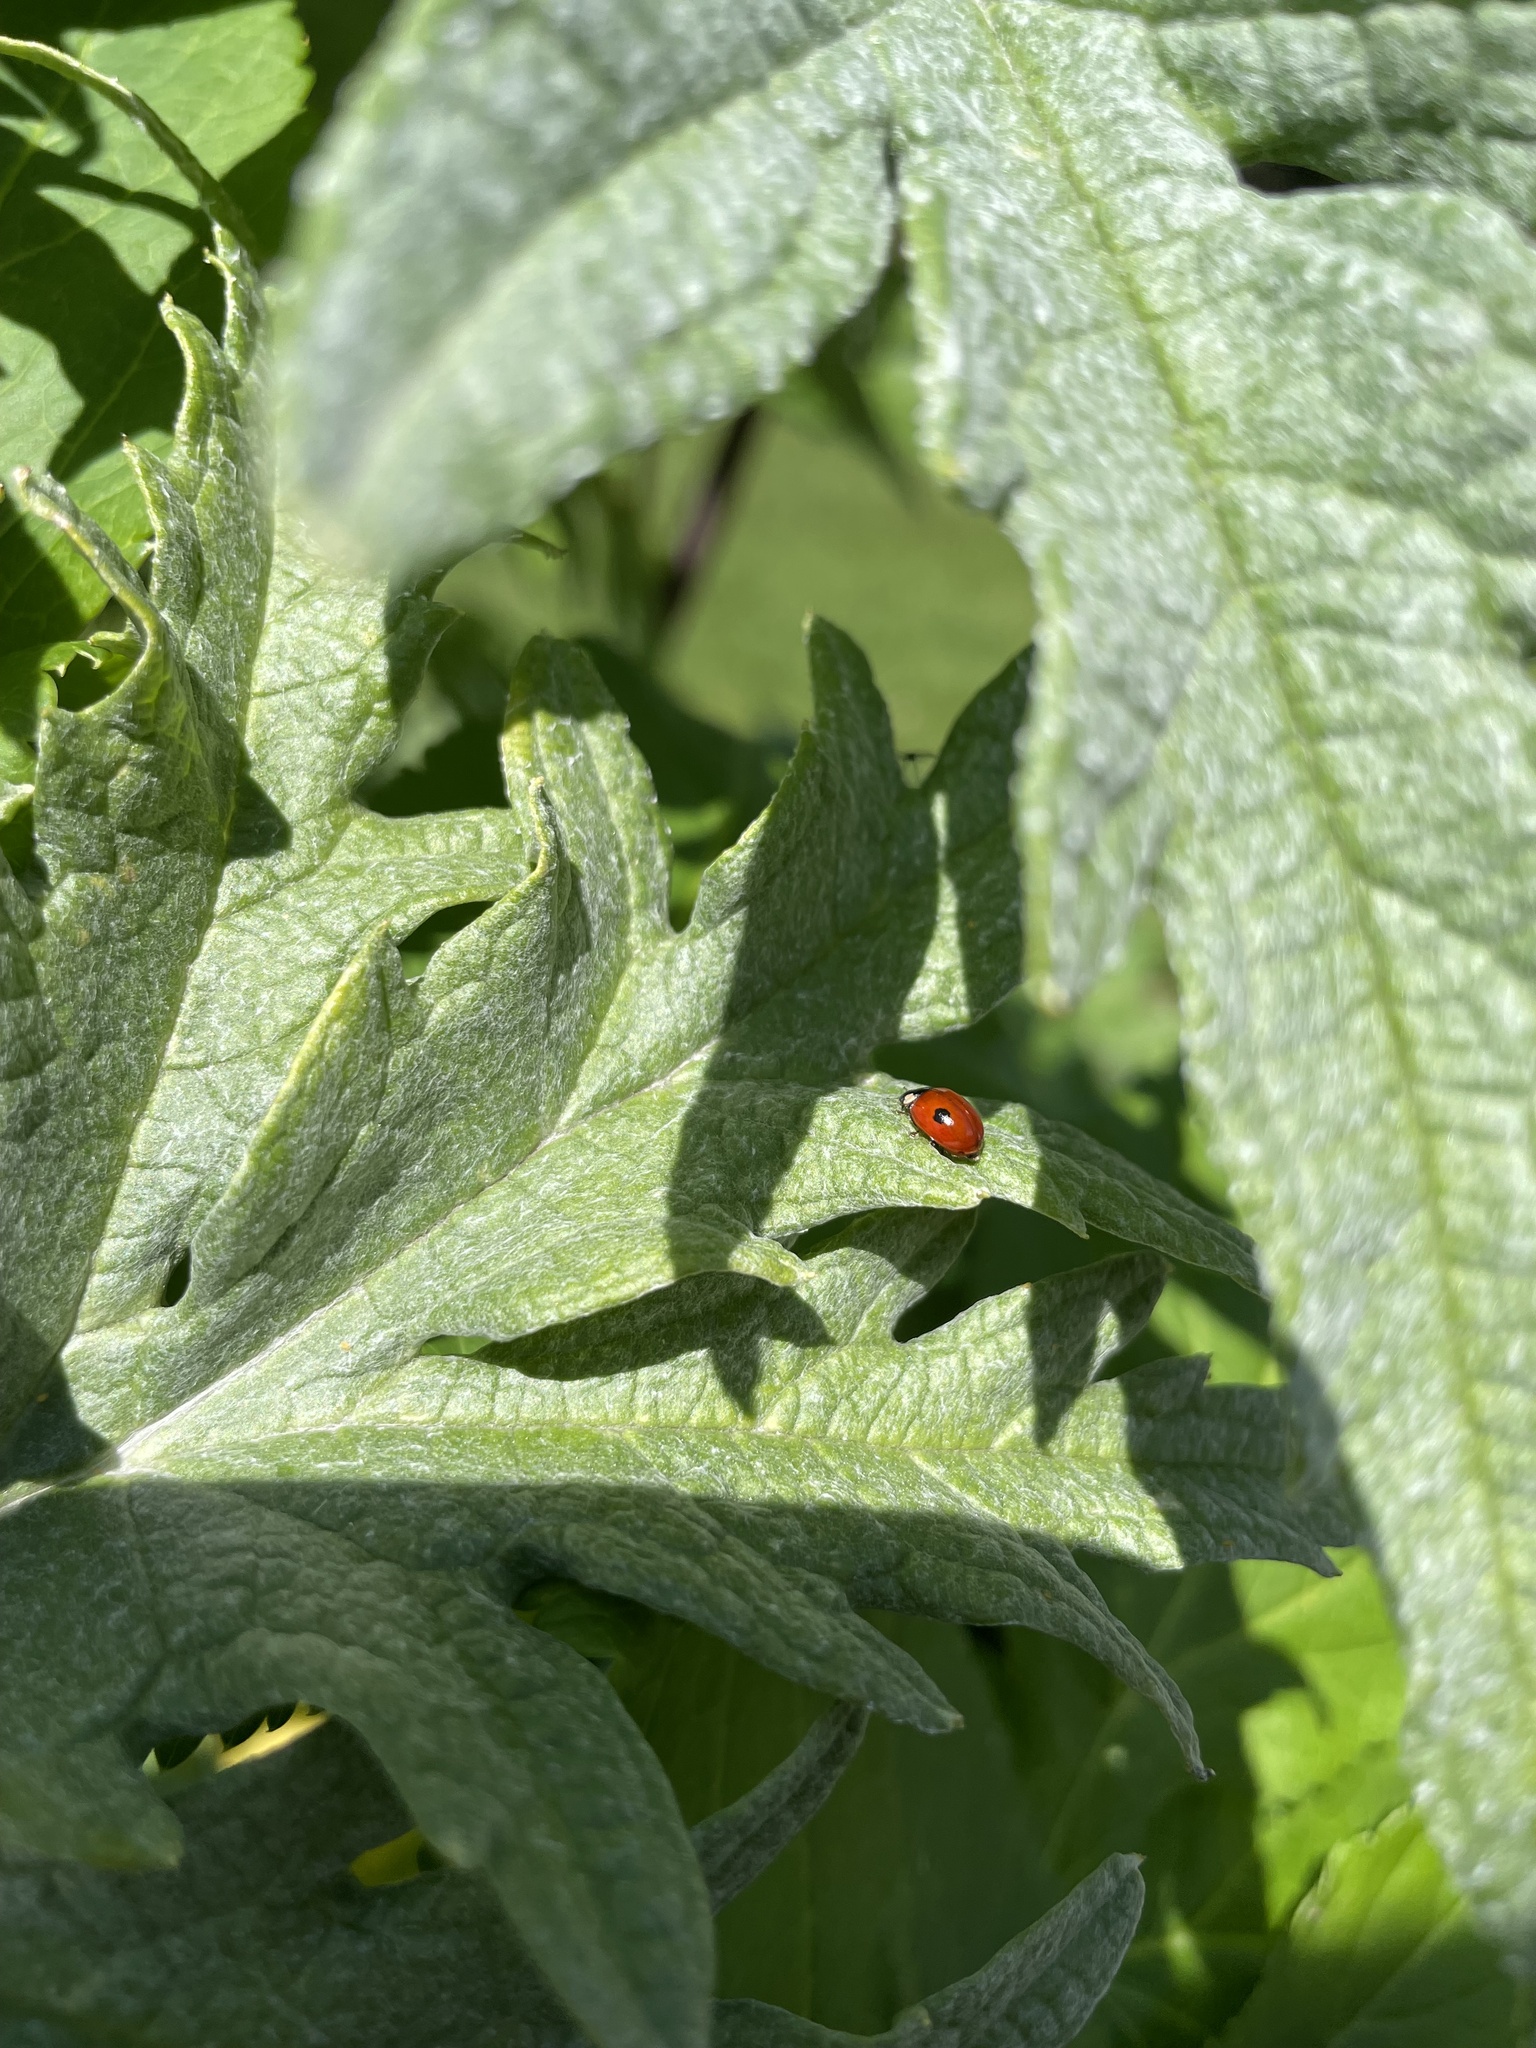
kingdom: Animalia
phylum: Arthropoda
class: Insecta
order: Coleoptera
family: Coccinellidae
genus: Adalia
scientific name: Adalia bipunctata
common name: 2-spot ladybird
